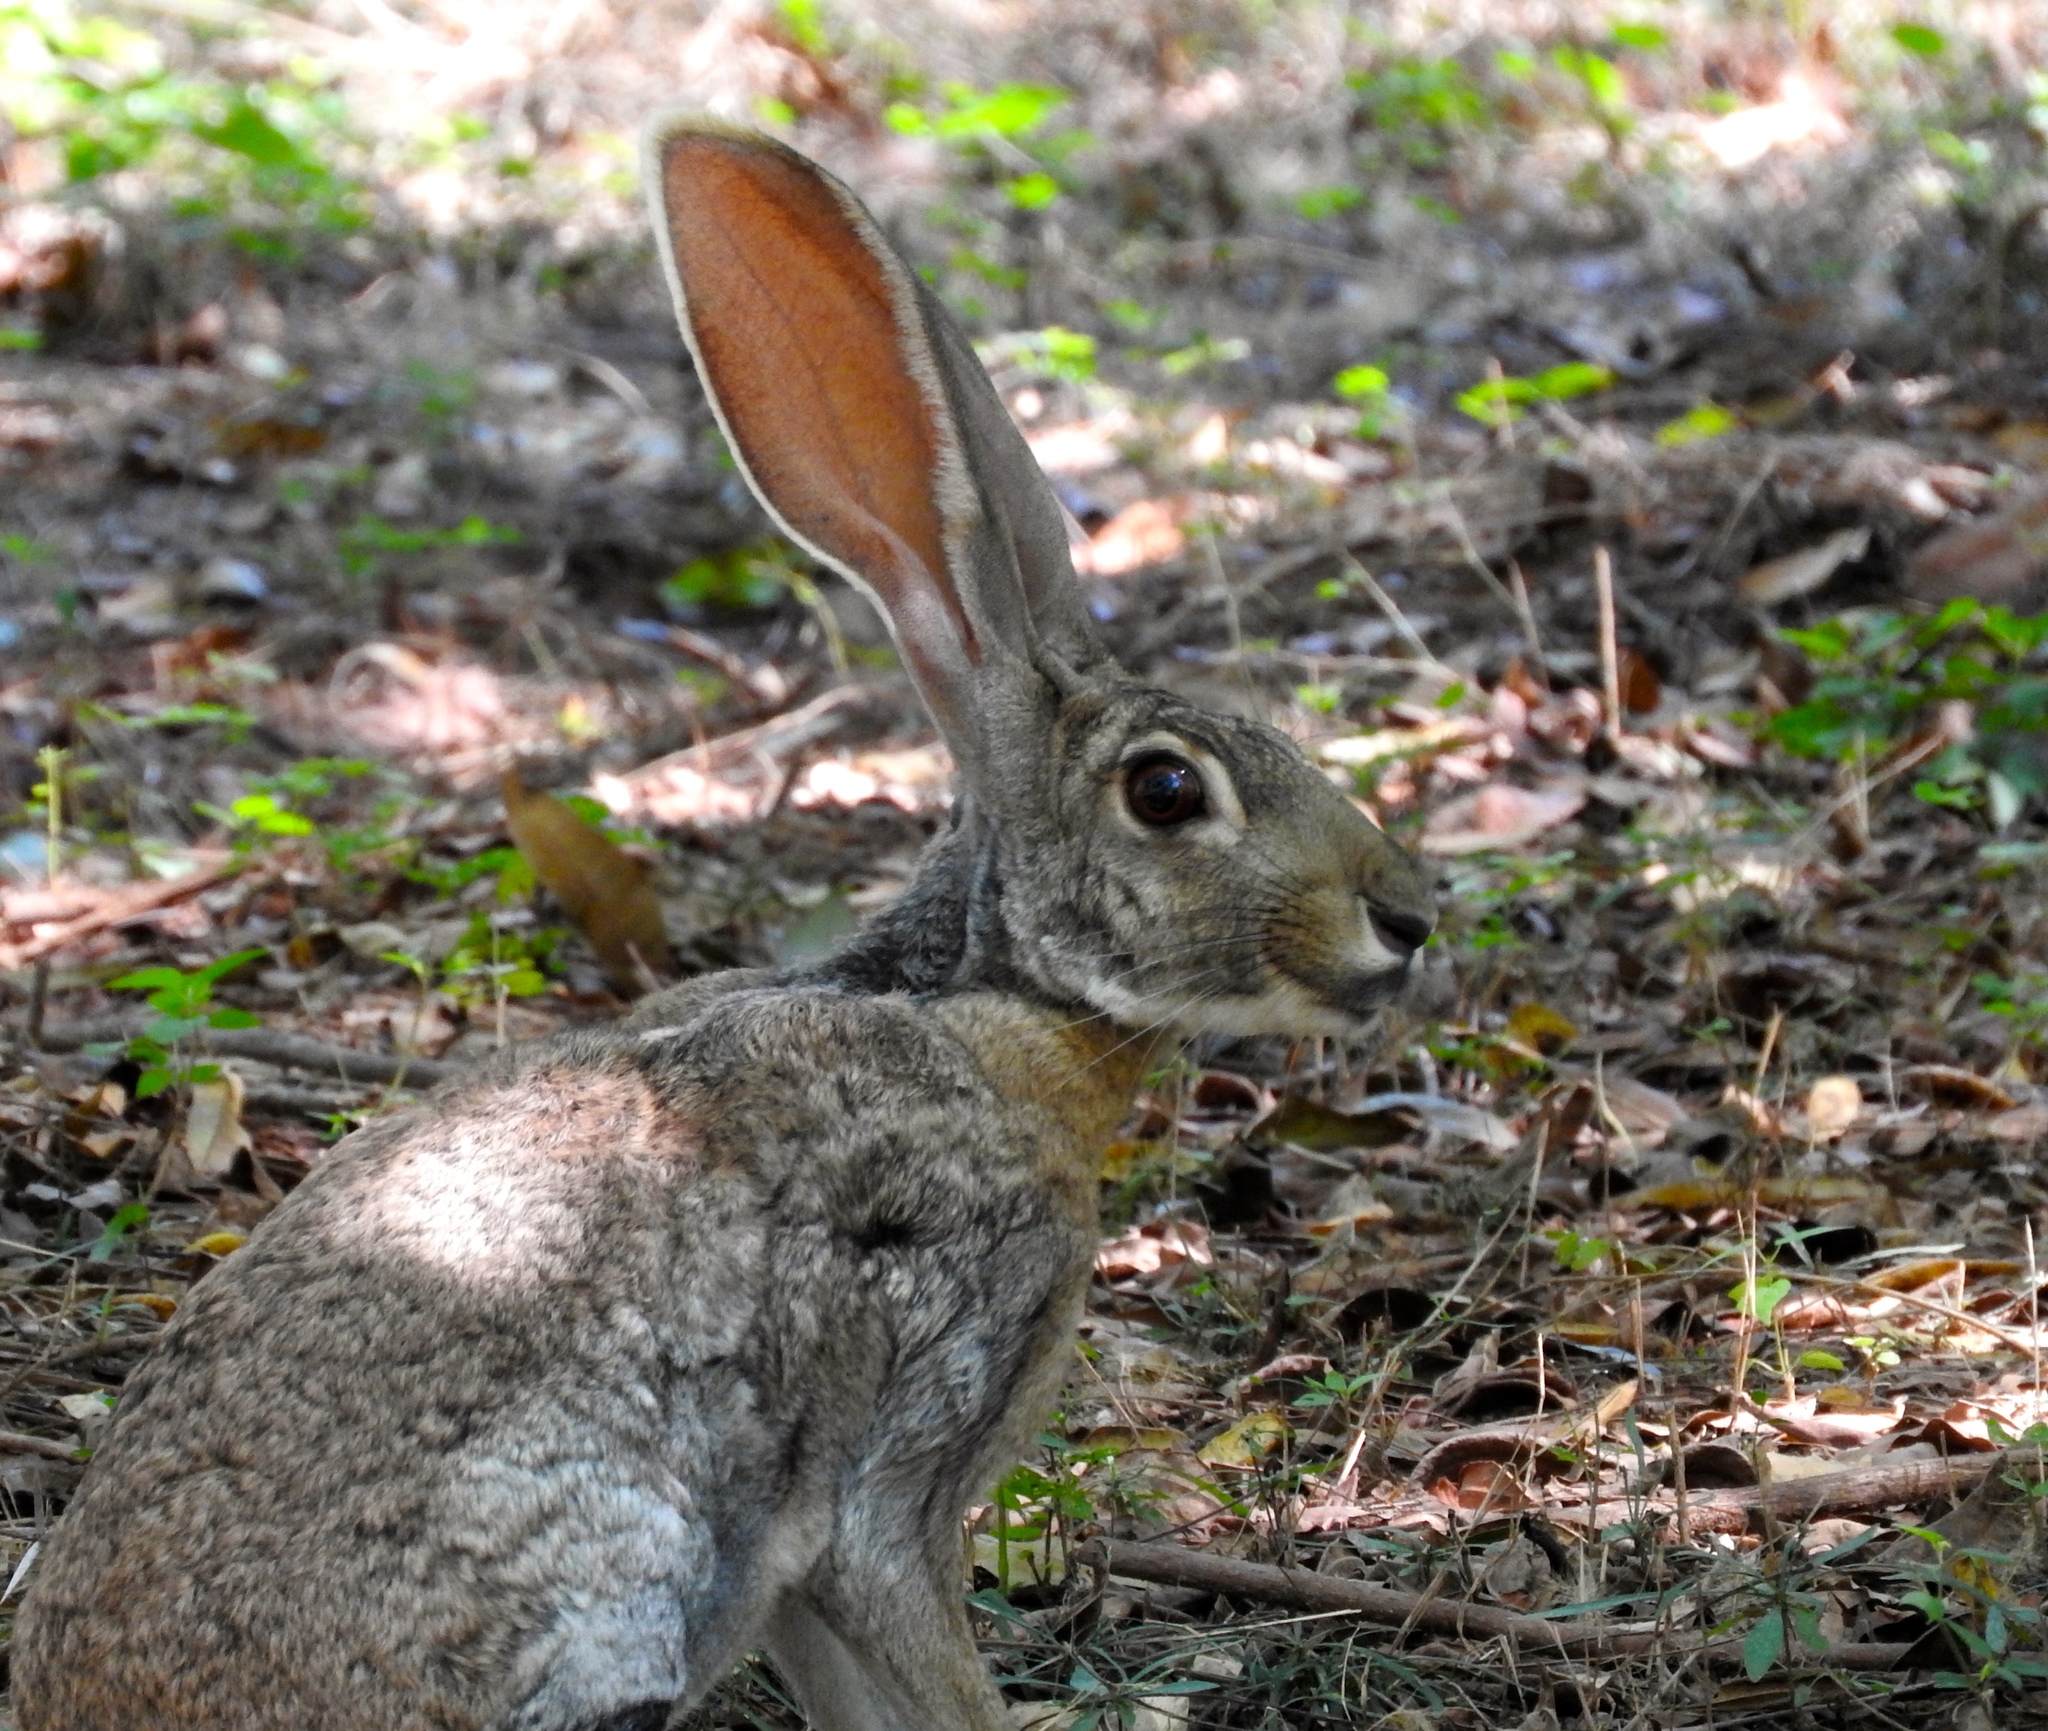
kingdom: Animalia
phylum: Chordata
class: Mammalia
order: Lagomorpha
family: Leporidae
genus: Lepus
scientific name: Lepus alleni
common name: Antelope jackrabbit
